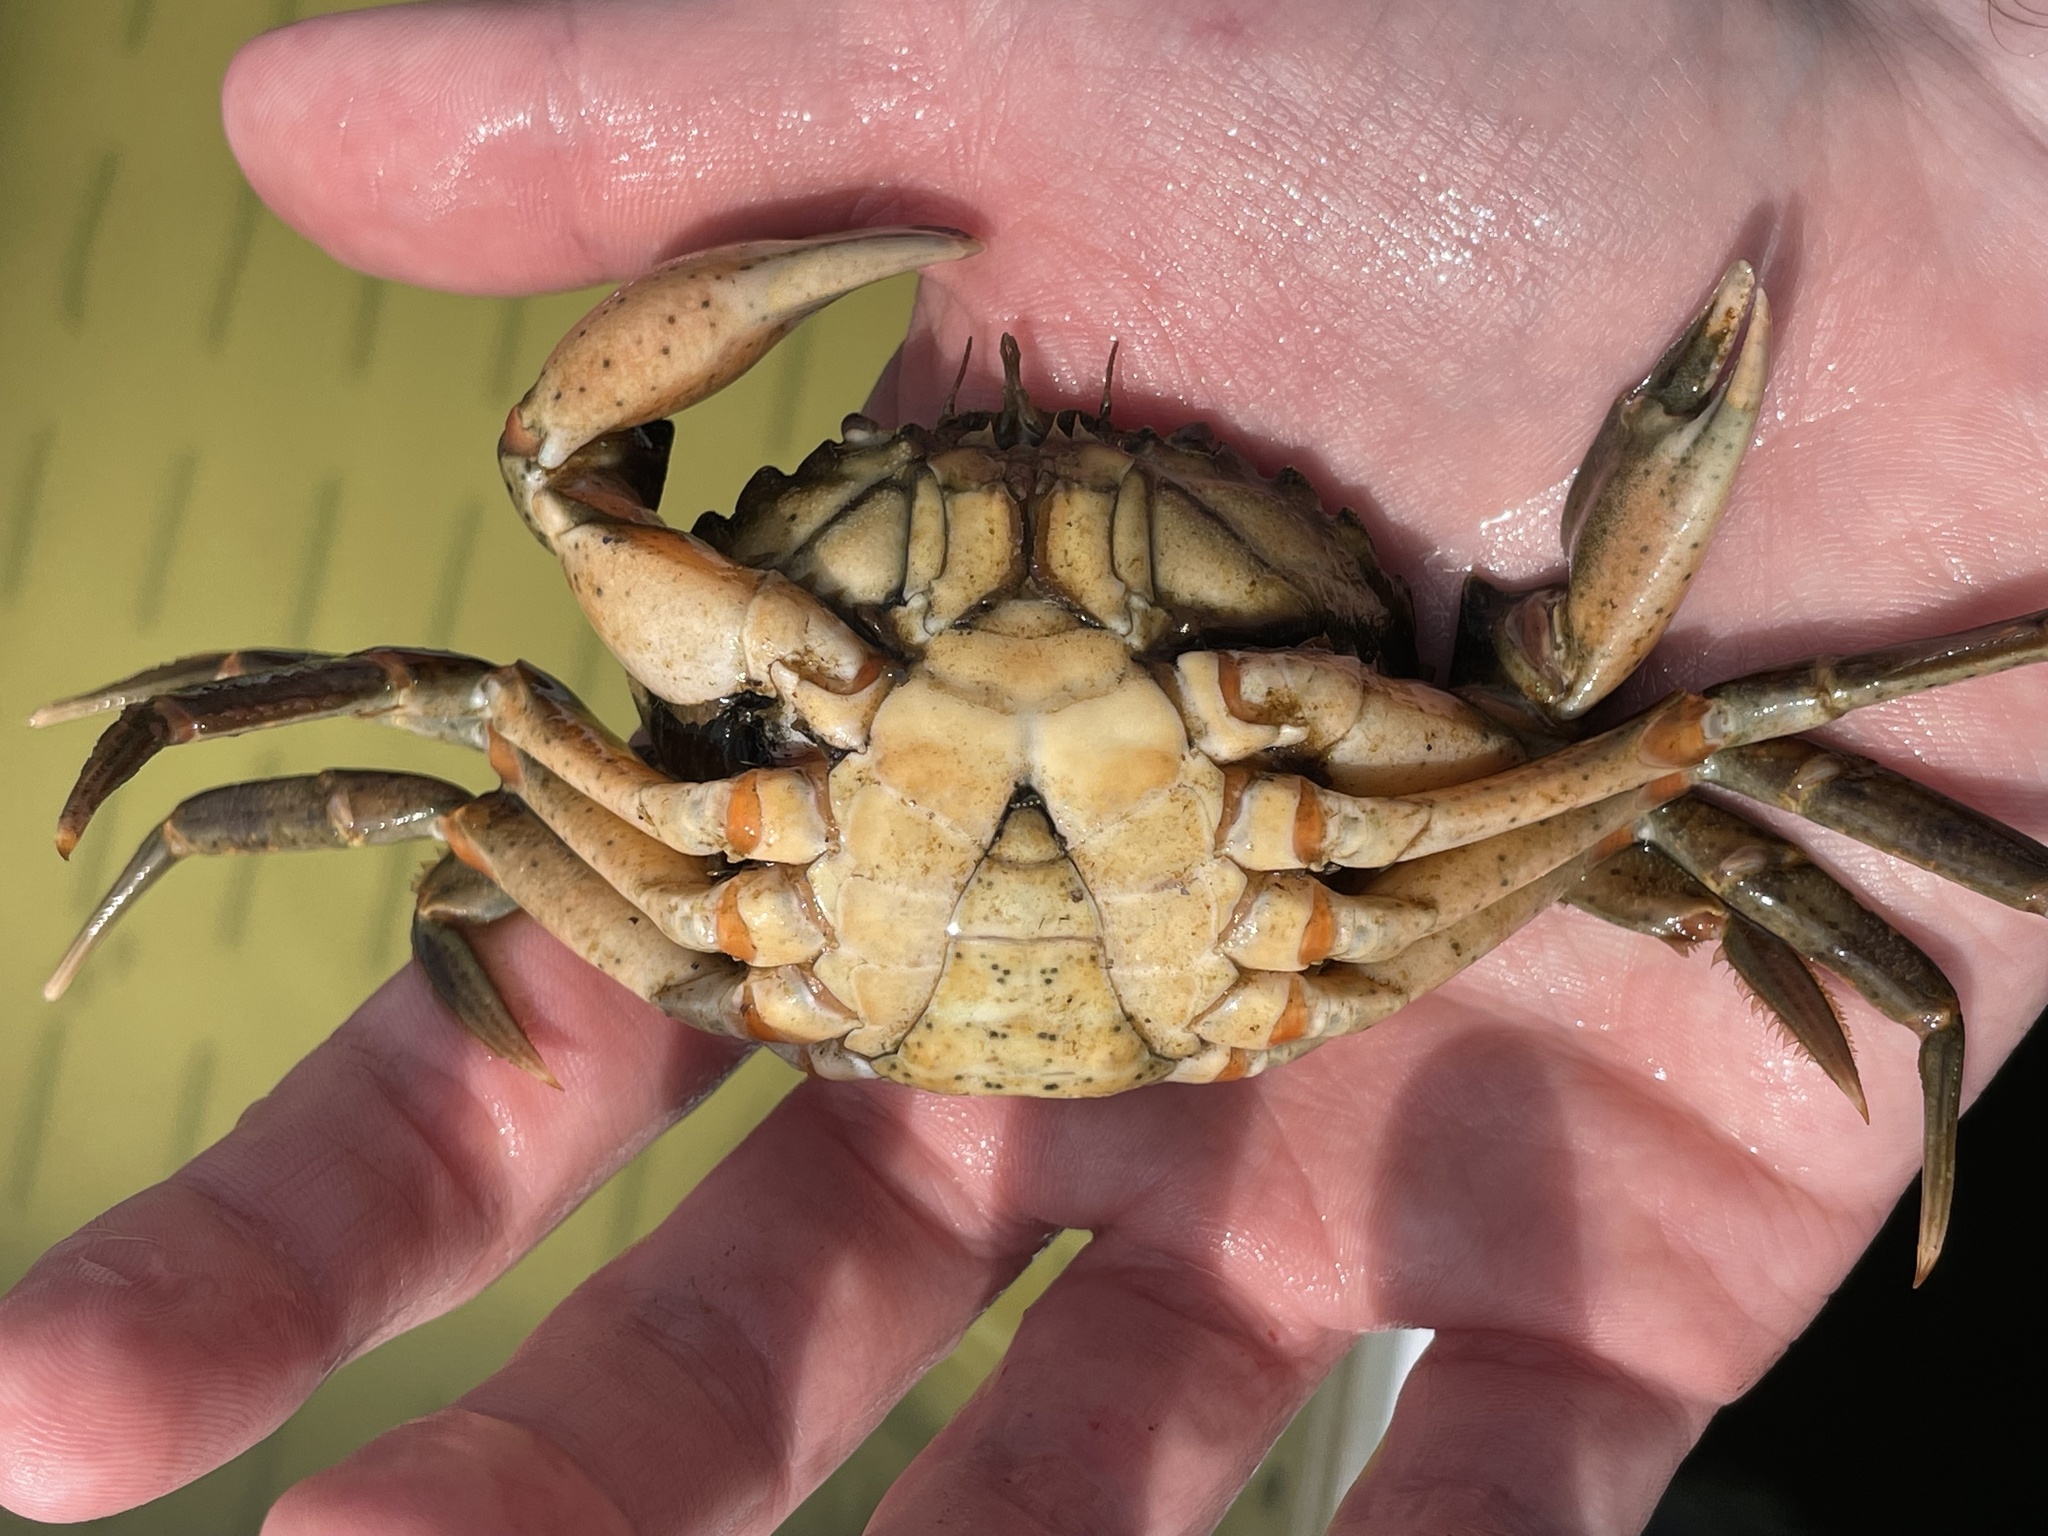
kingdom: Animalia
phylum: Arthropoda
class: Malacostraca
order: Decapoda
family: Carcinidae
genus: Carcinus
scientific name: Carcinus maenas
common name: European green crab
